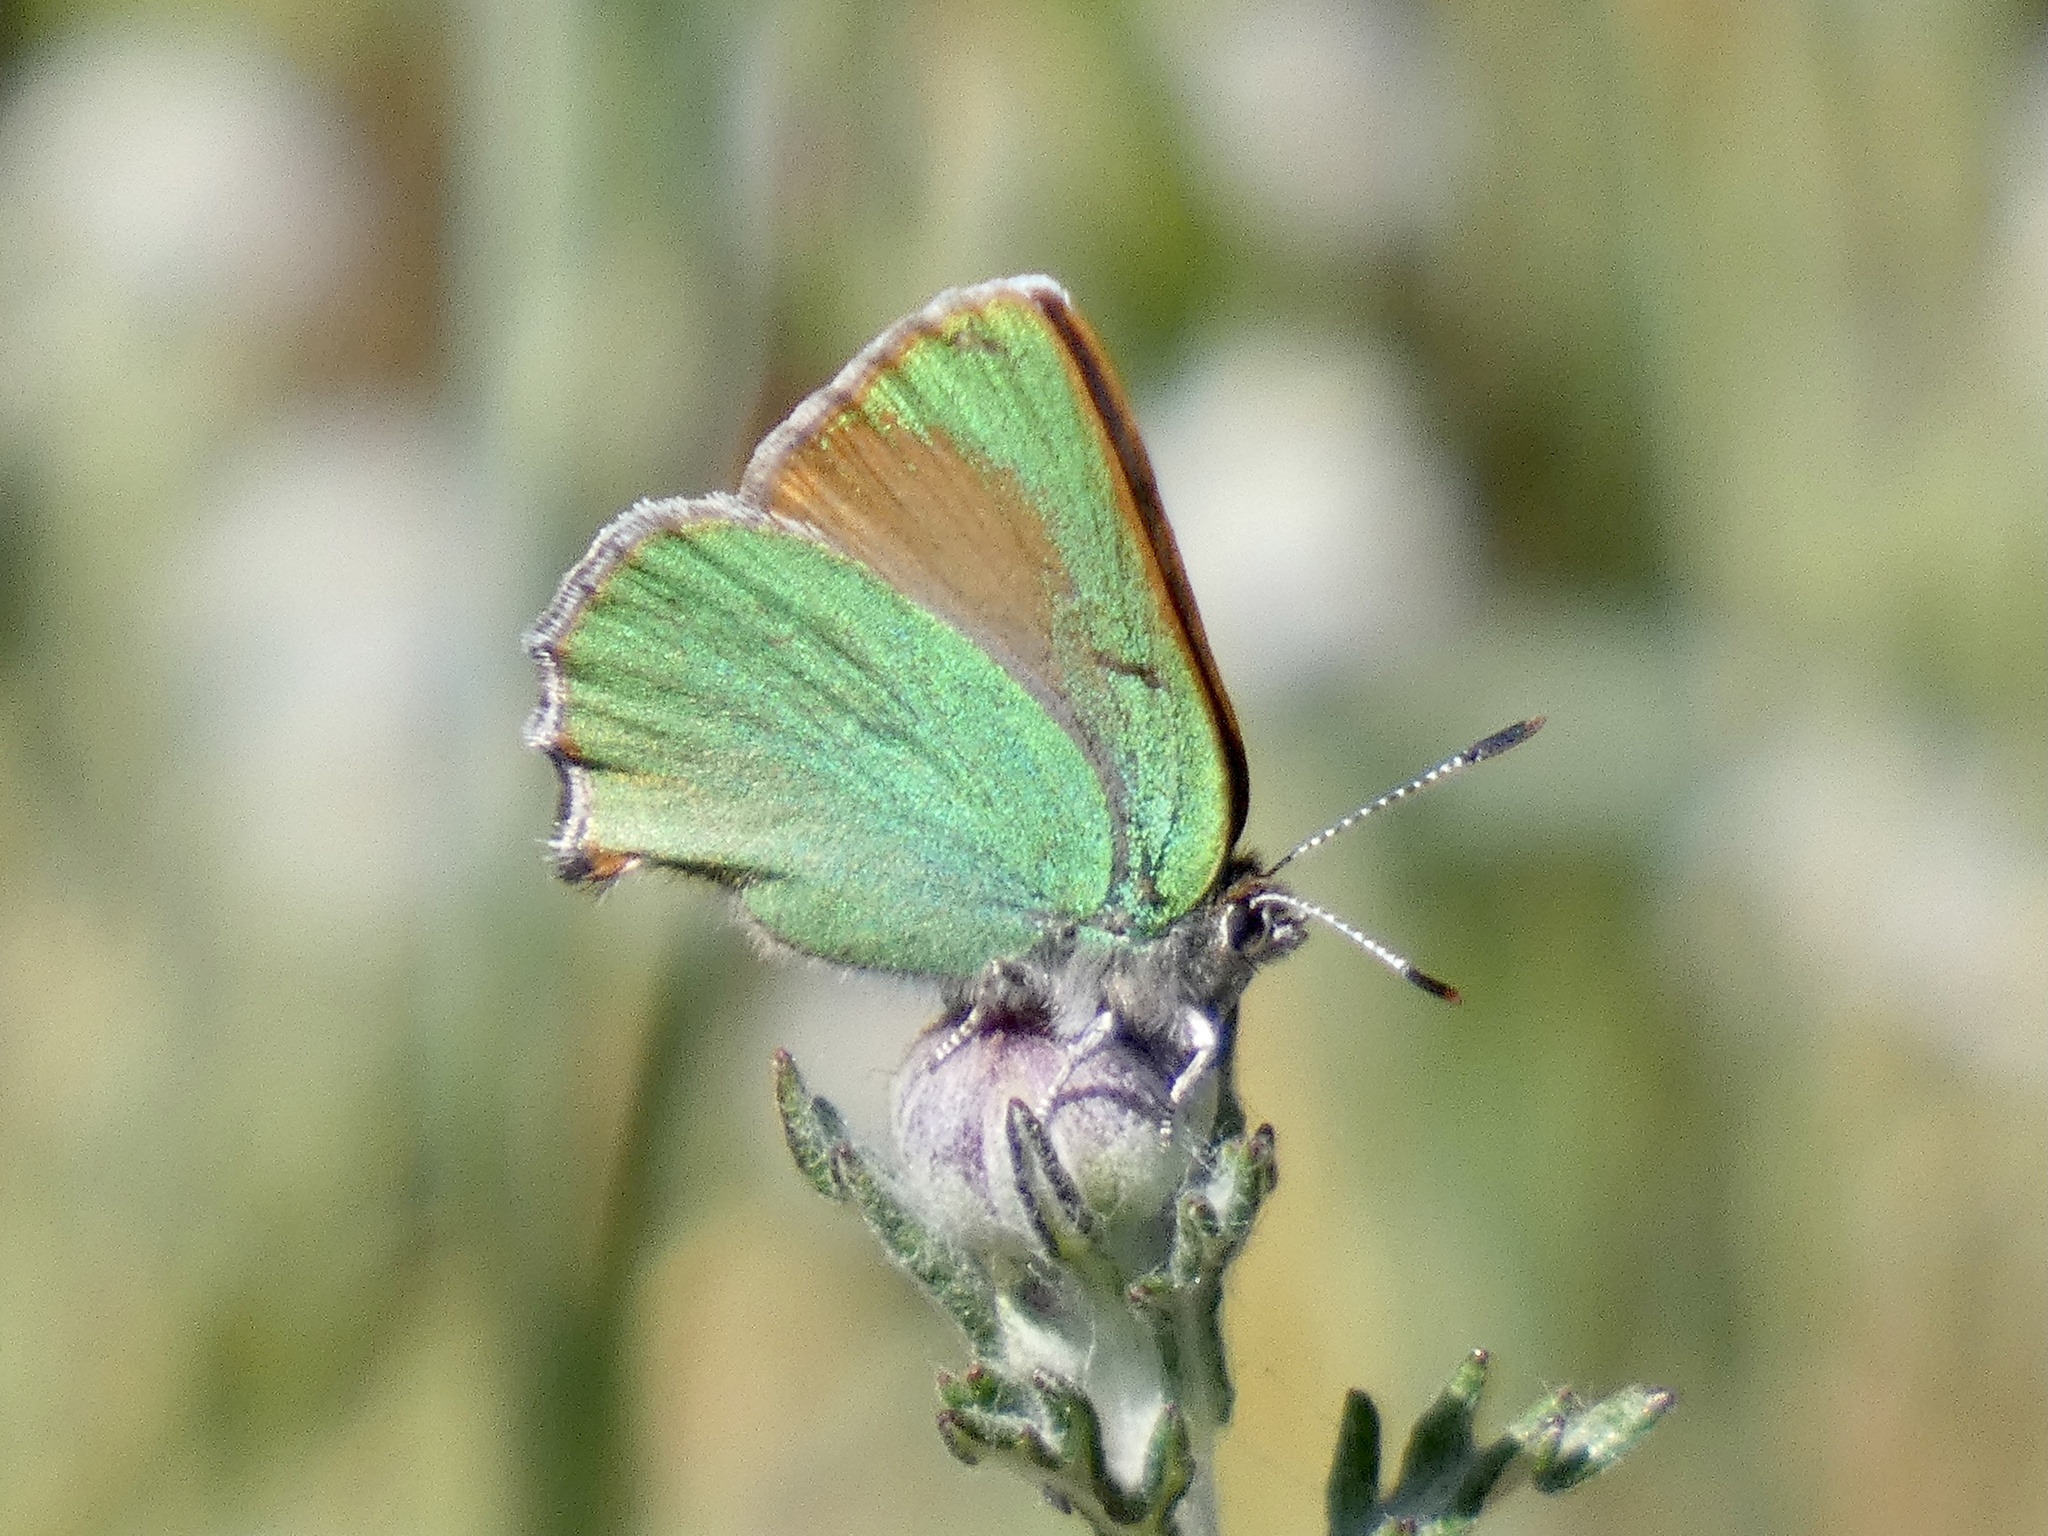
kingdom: Animalia
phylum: Arthropoda
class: Insecta
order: Lepidoptera
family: Lycaenidae
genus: Callophrys
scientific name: Callophrys dumetorum
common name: Bramble hairstreak
